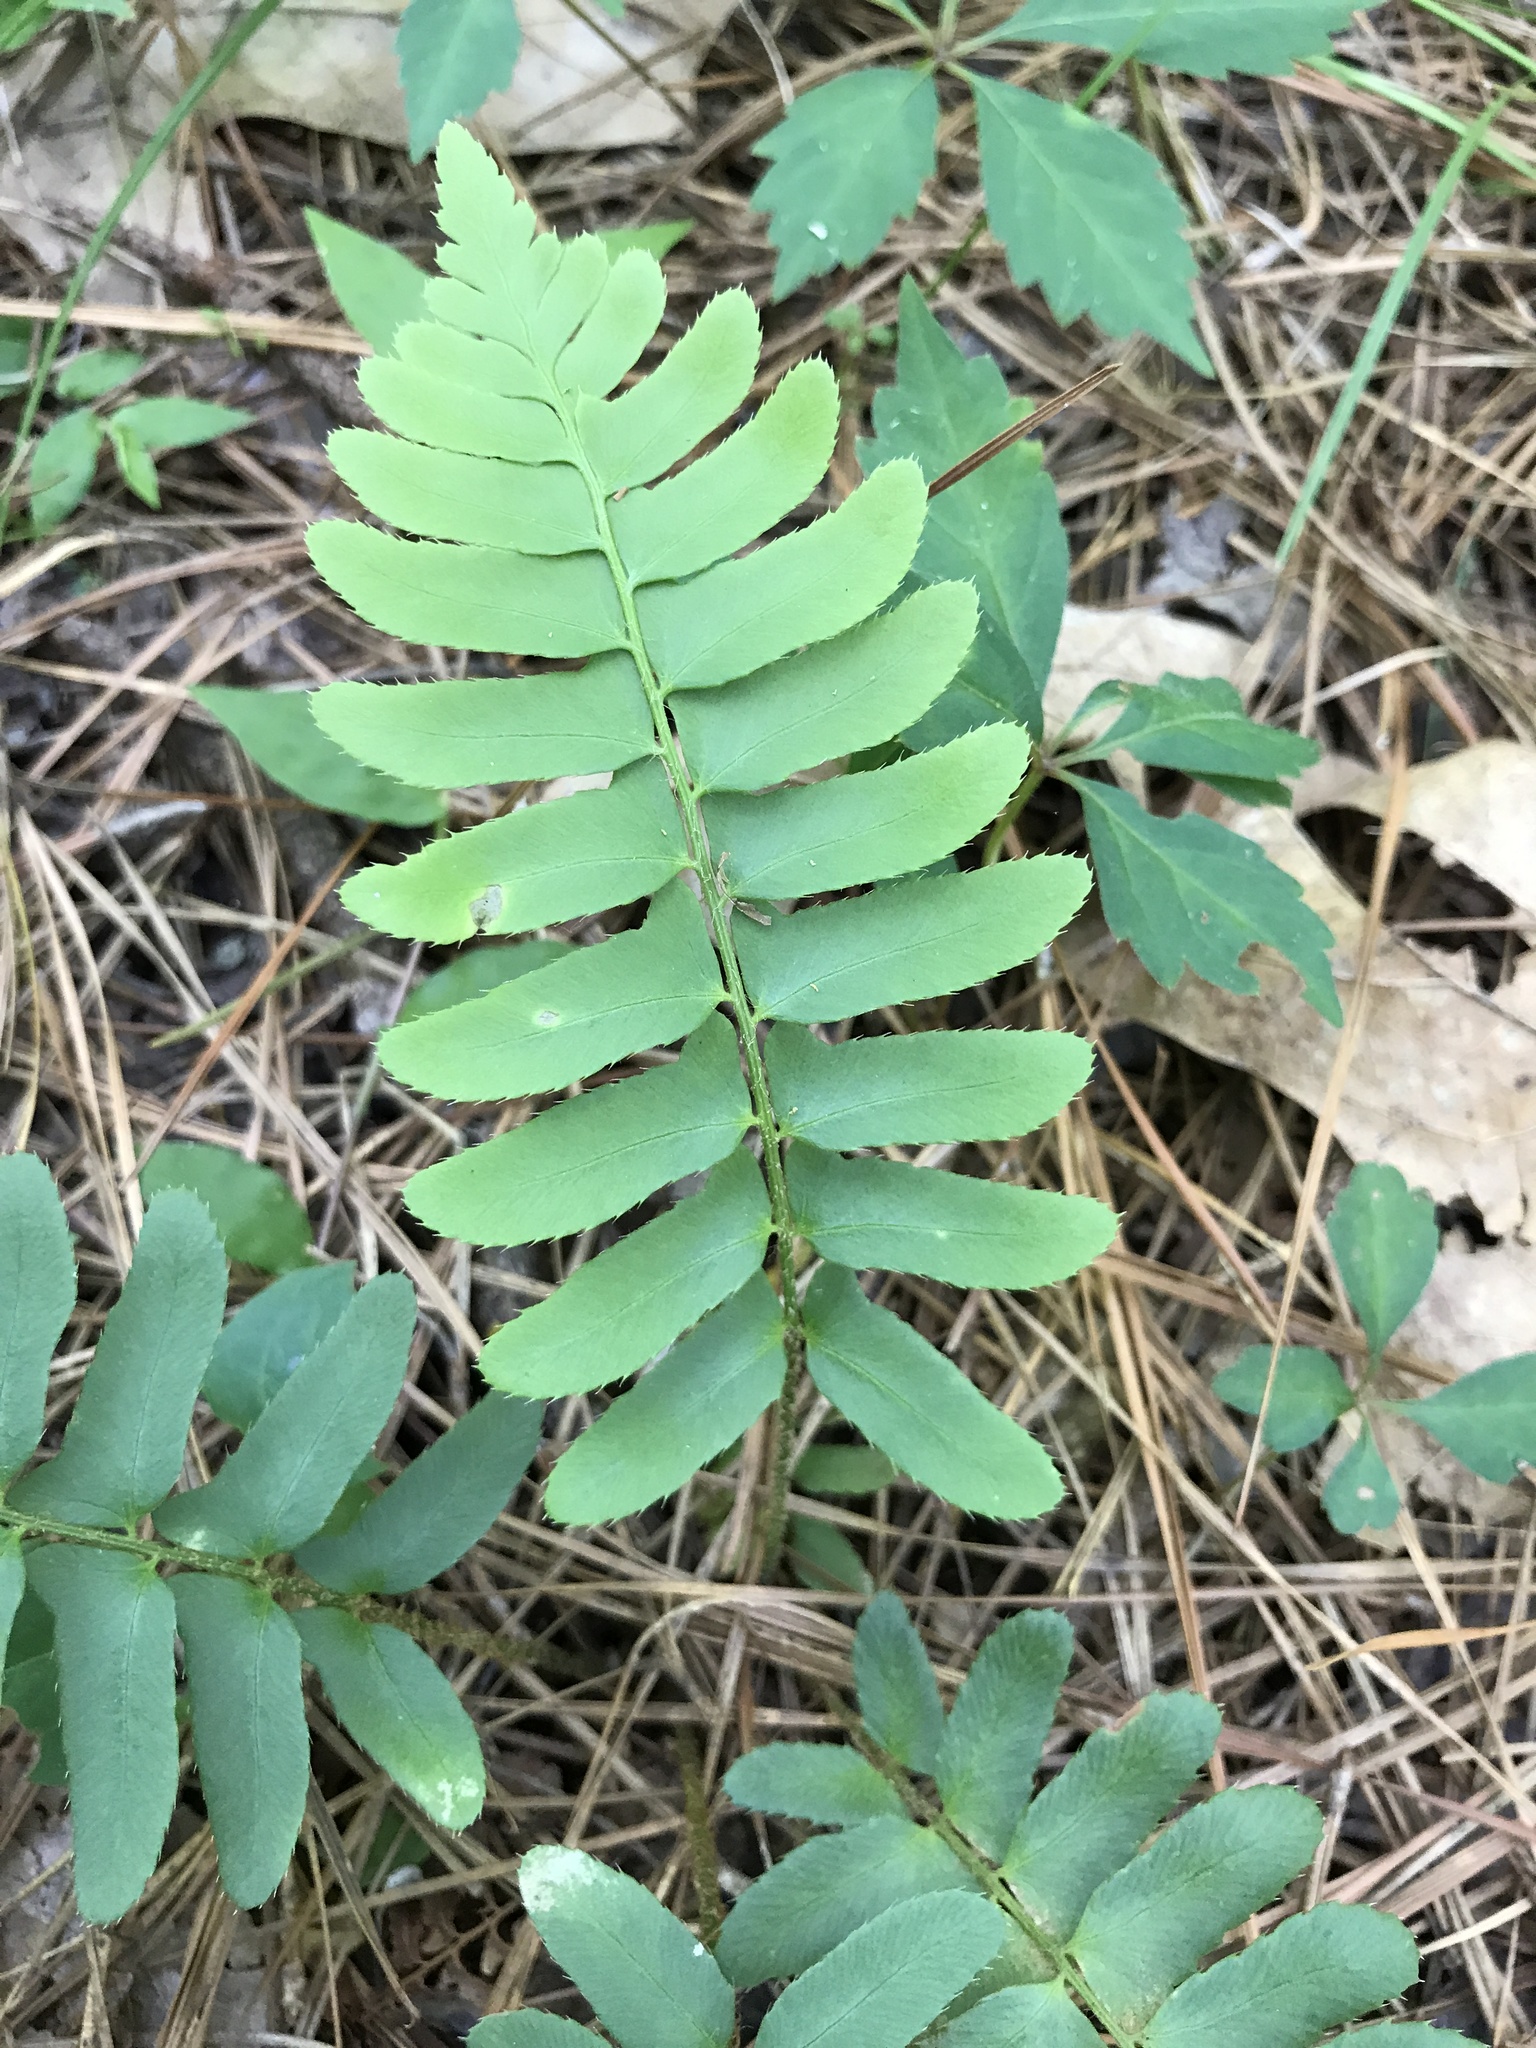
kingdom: Plantae
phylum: Tracheophyta
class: Polypodiopsida
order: Polypodiales
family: Dryopteridaceae
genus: Polystichum
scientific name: Polystichum acrostichoides
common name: Christmas fern
